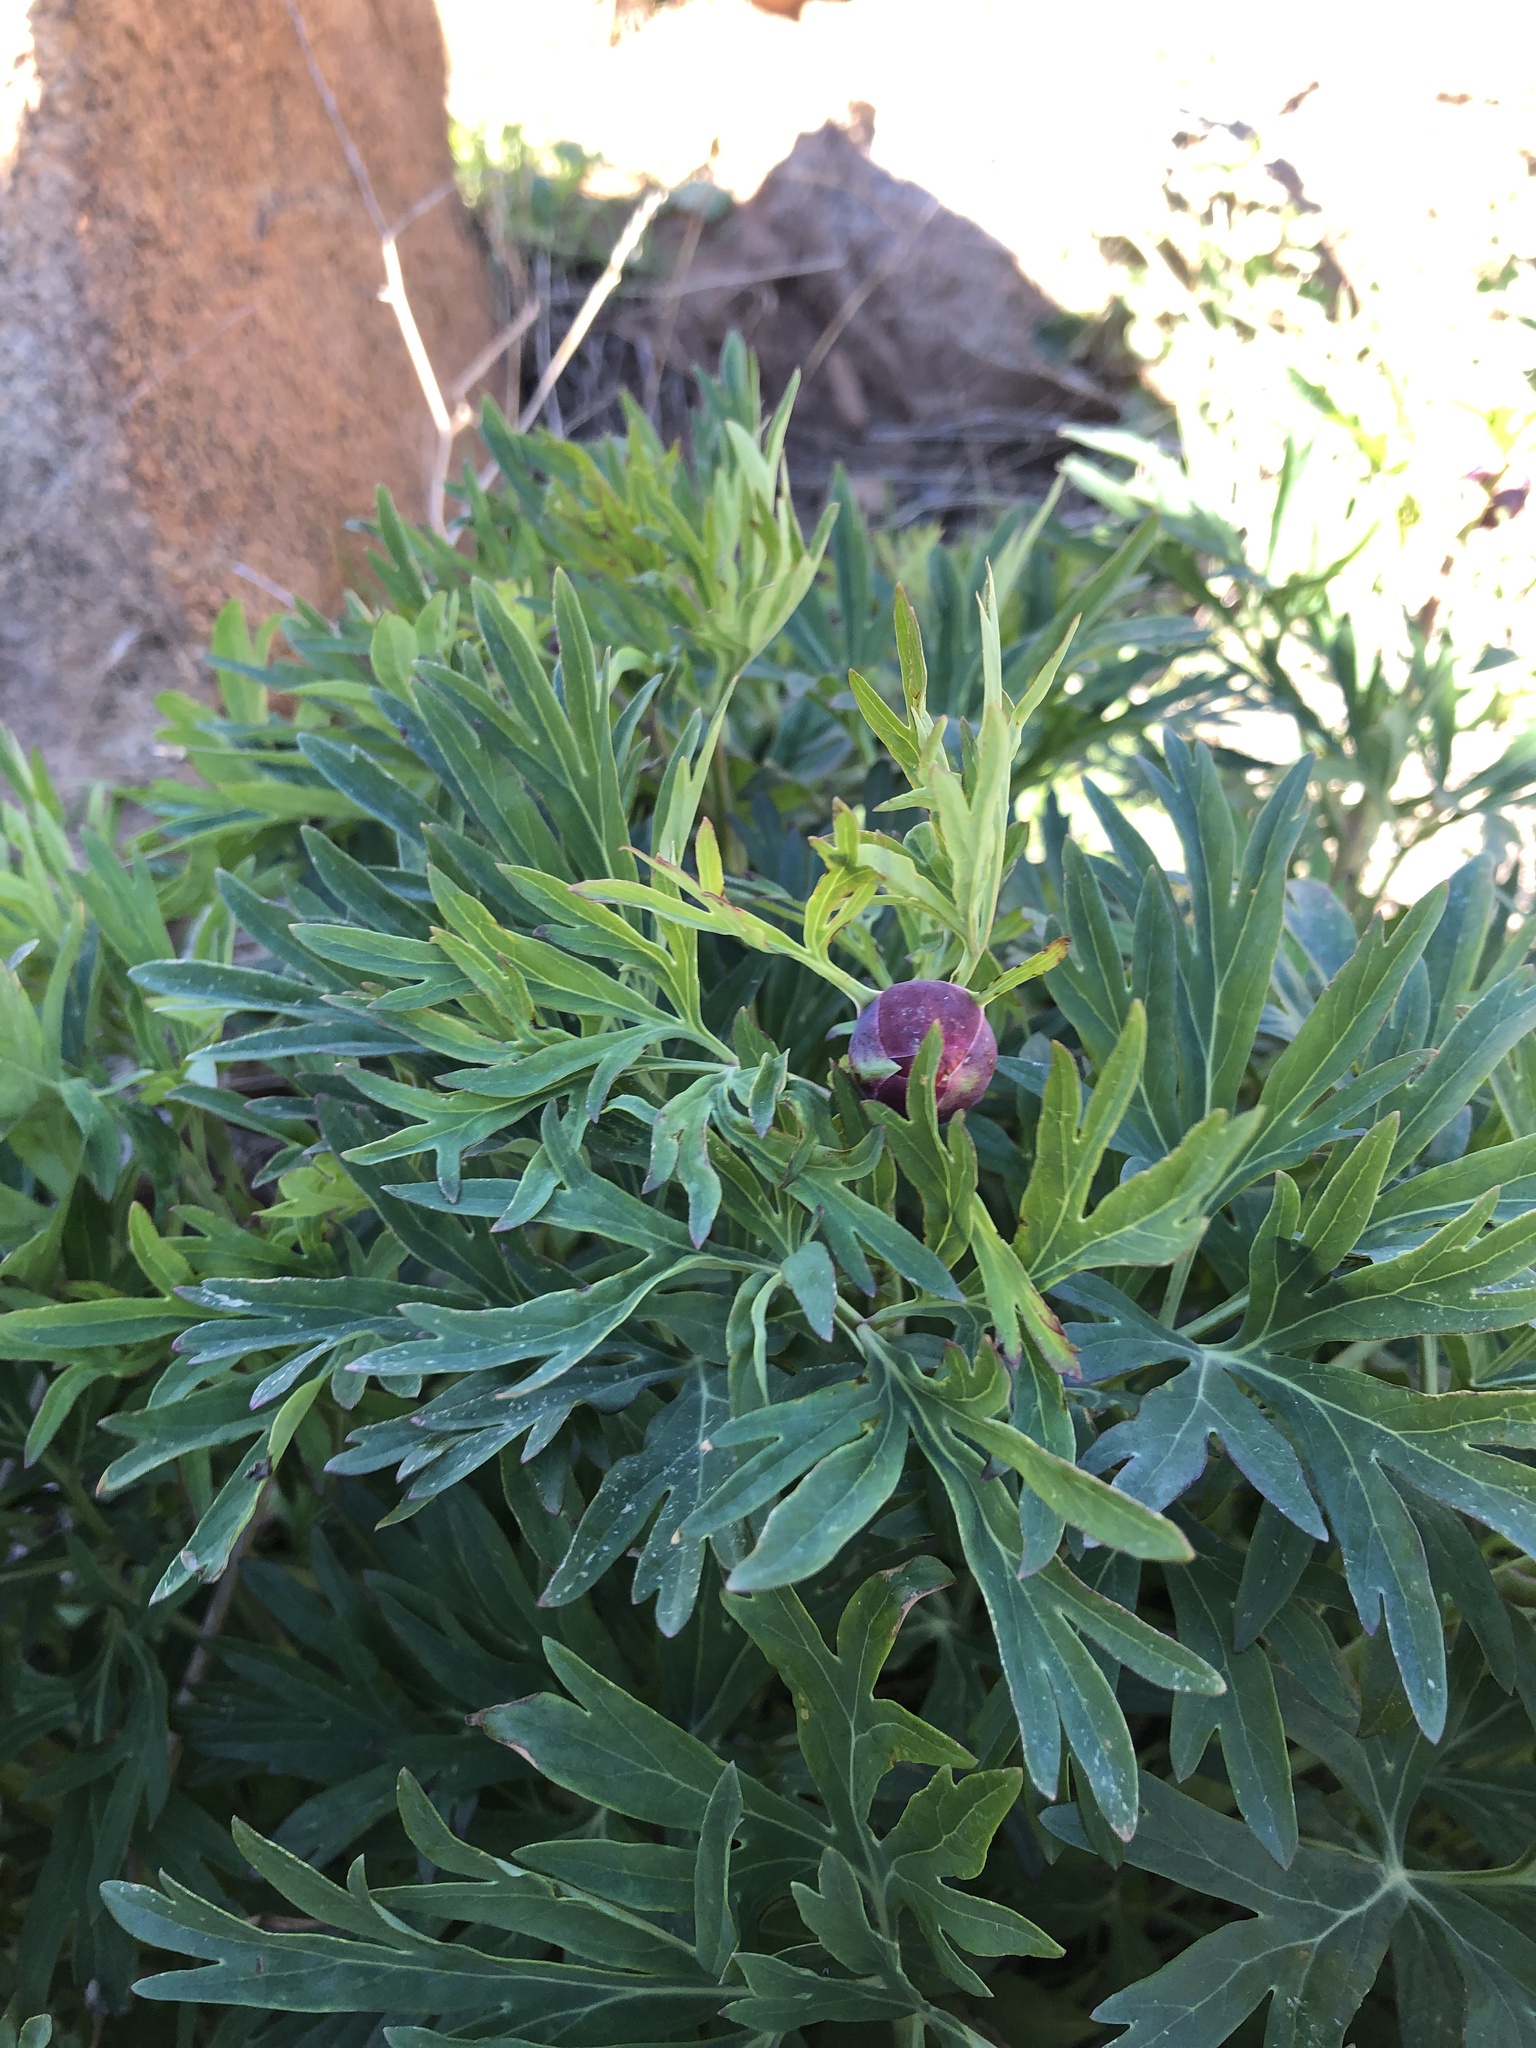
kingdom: Plantae
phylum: Tracheophyta
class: Magnoliopsida
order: Saxifragales
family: Paeoniaceae
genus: Paeonia
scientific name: Paeonia californica
